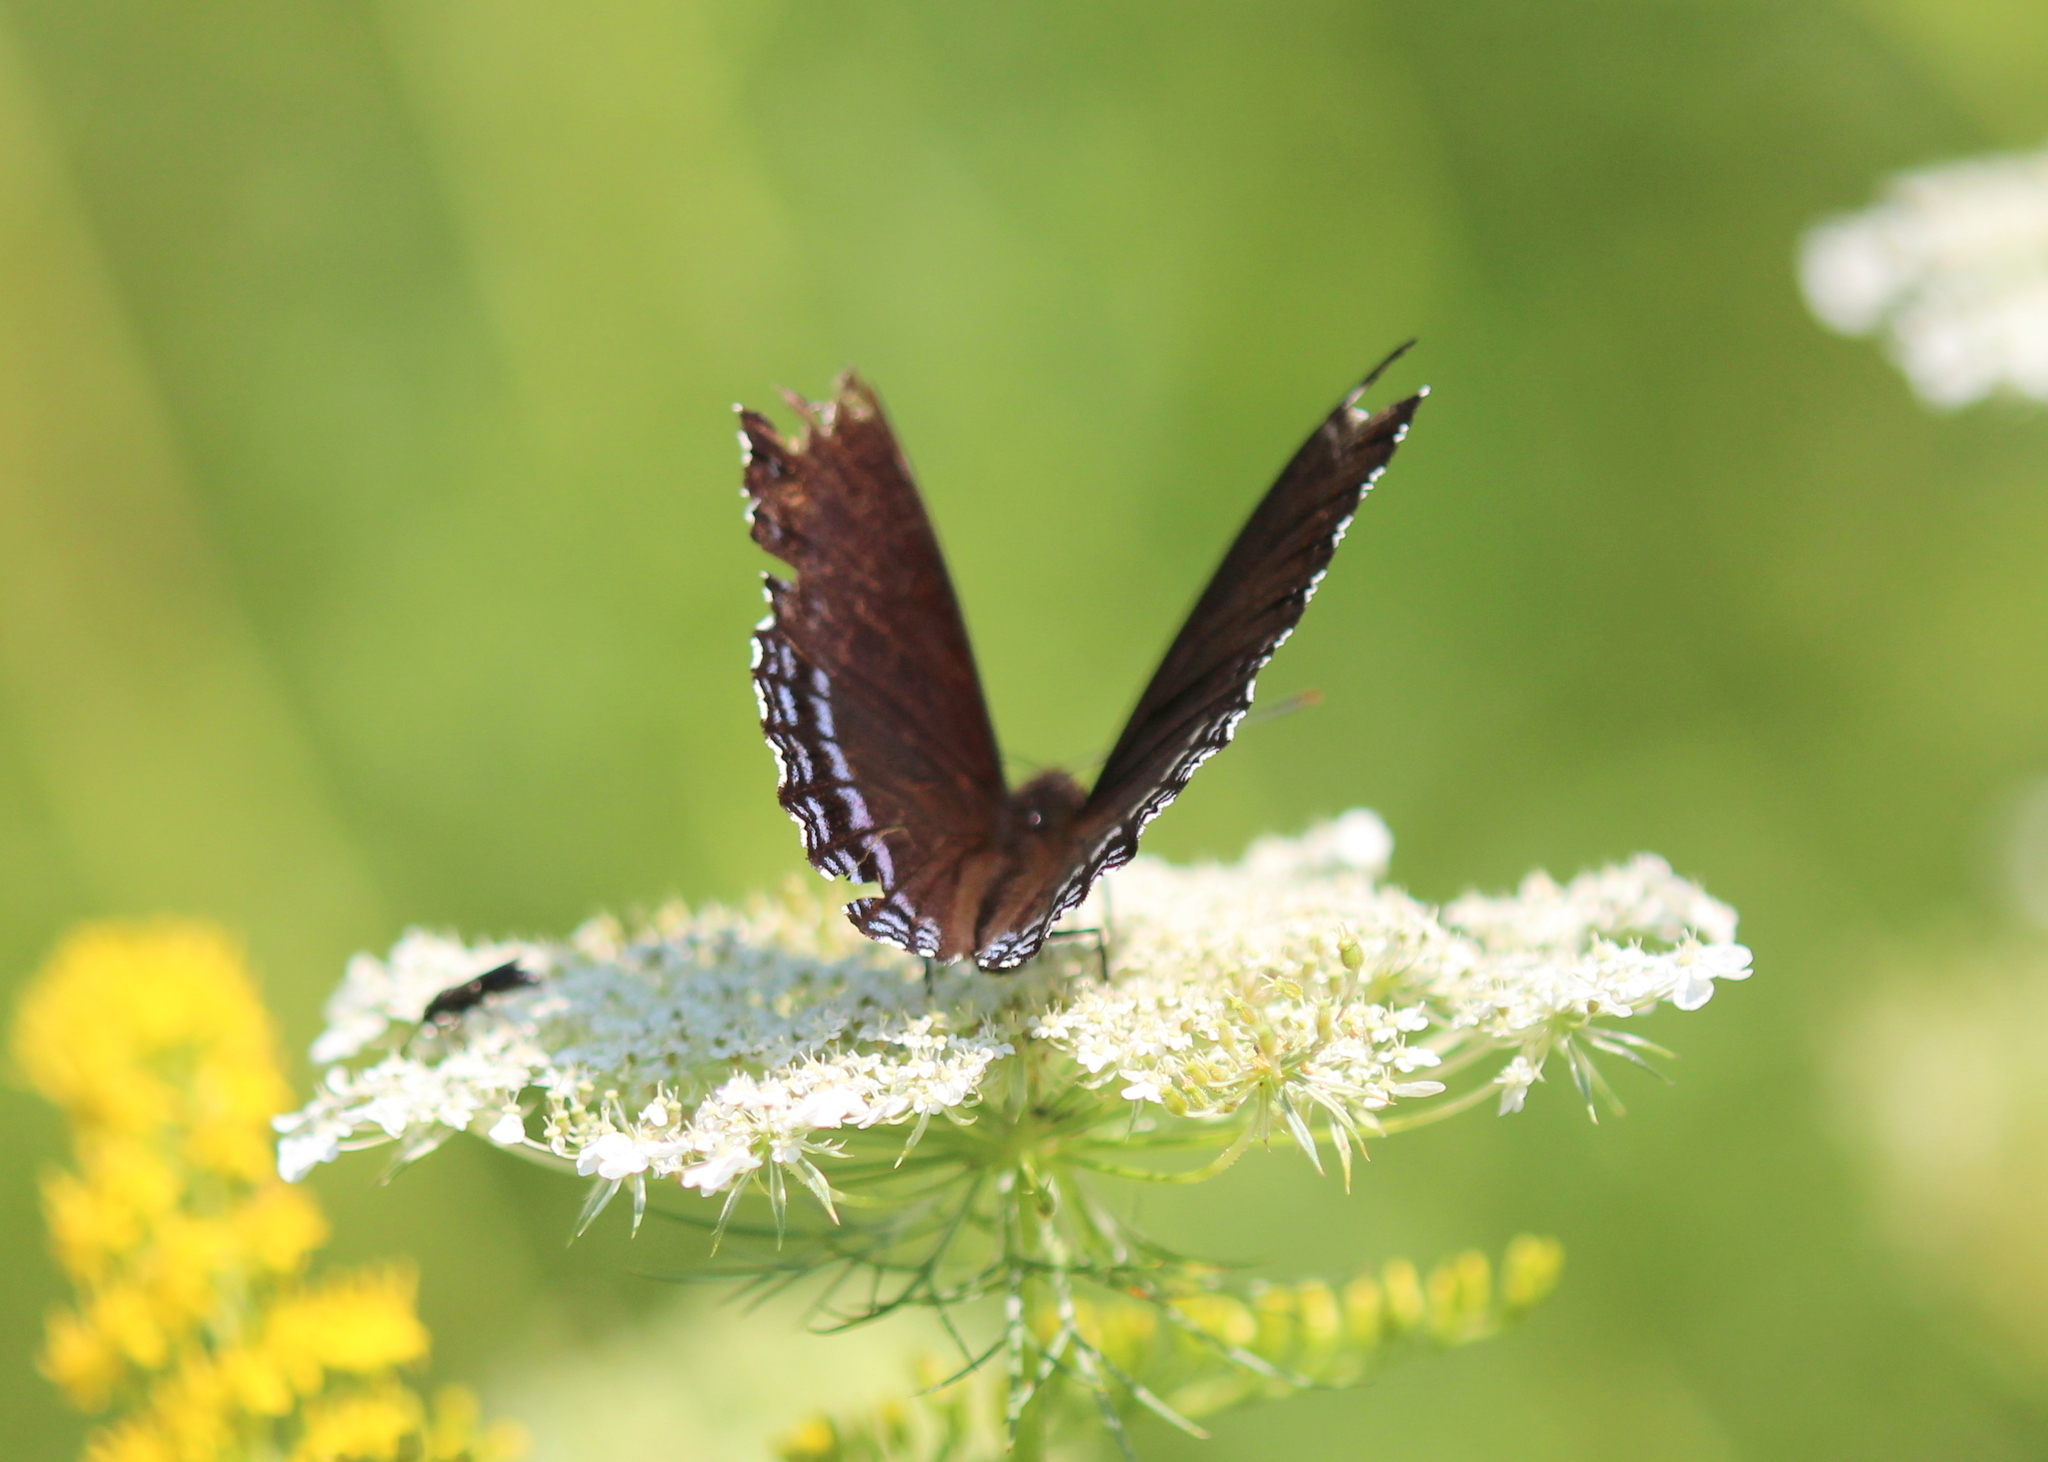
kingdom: Animalia
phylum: Arthropoda
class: Insecta
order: Lepidoptera
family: Nymphalidae
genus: Limenitis
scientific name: Limenitis astyanax
